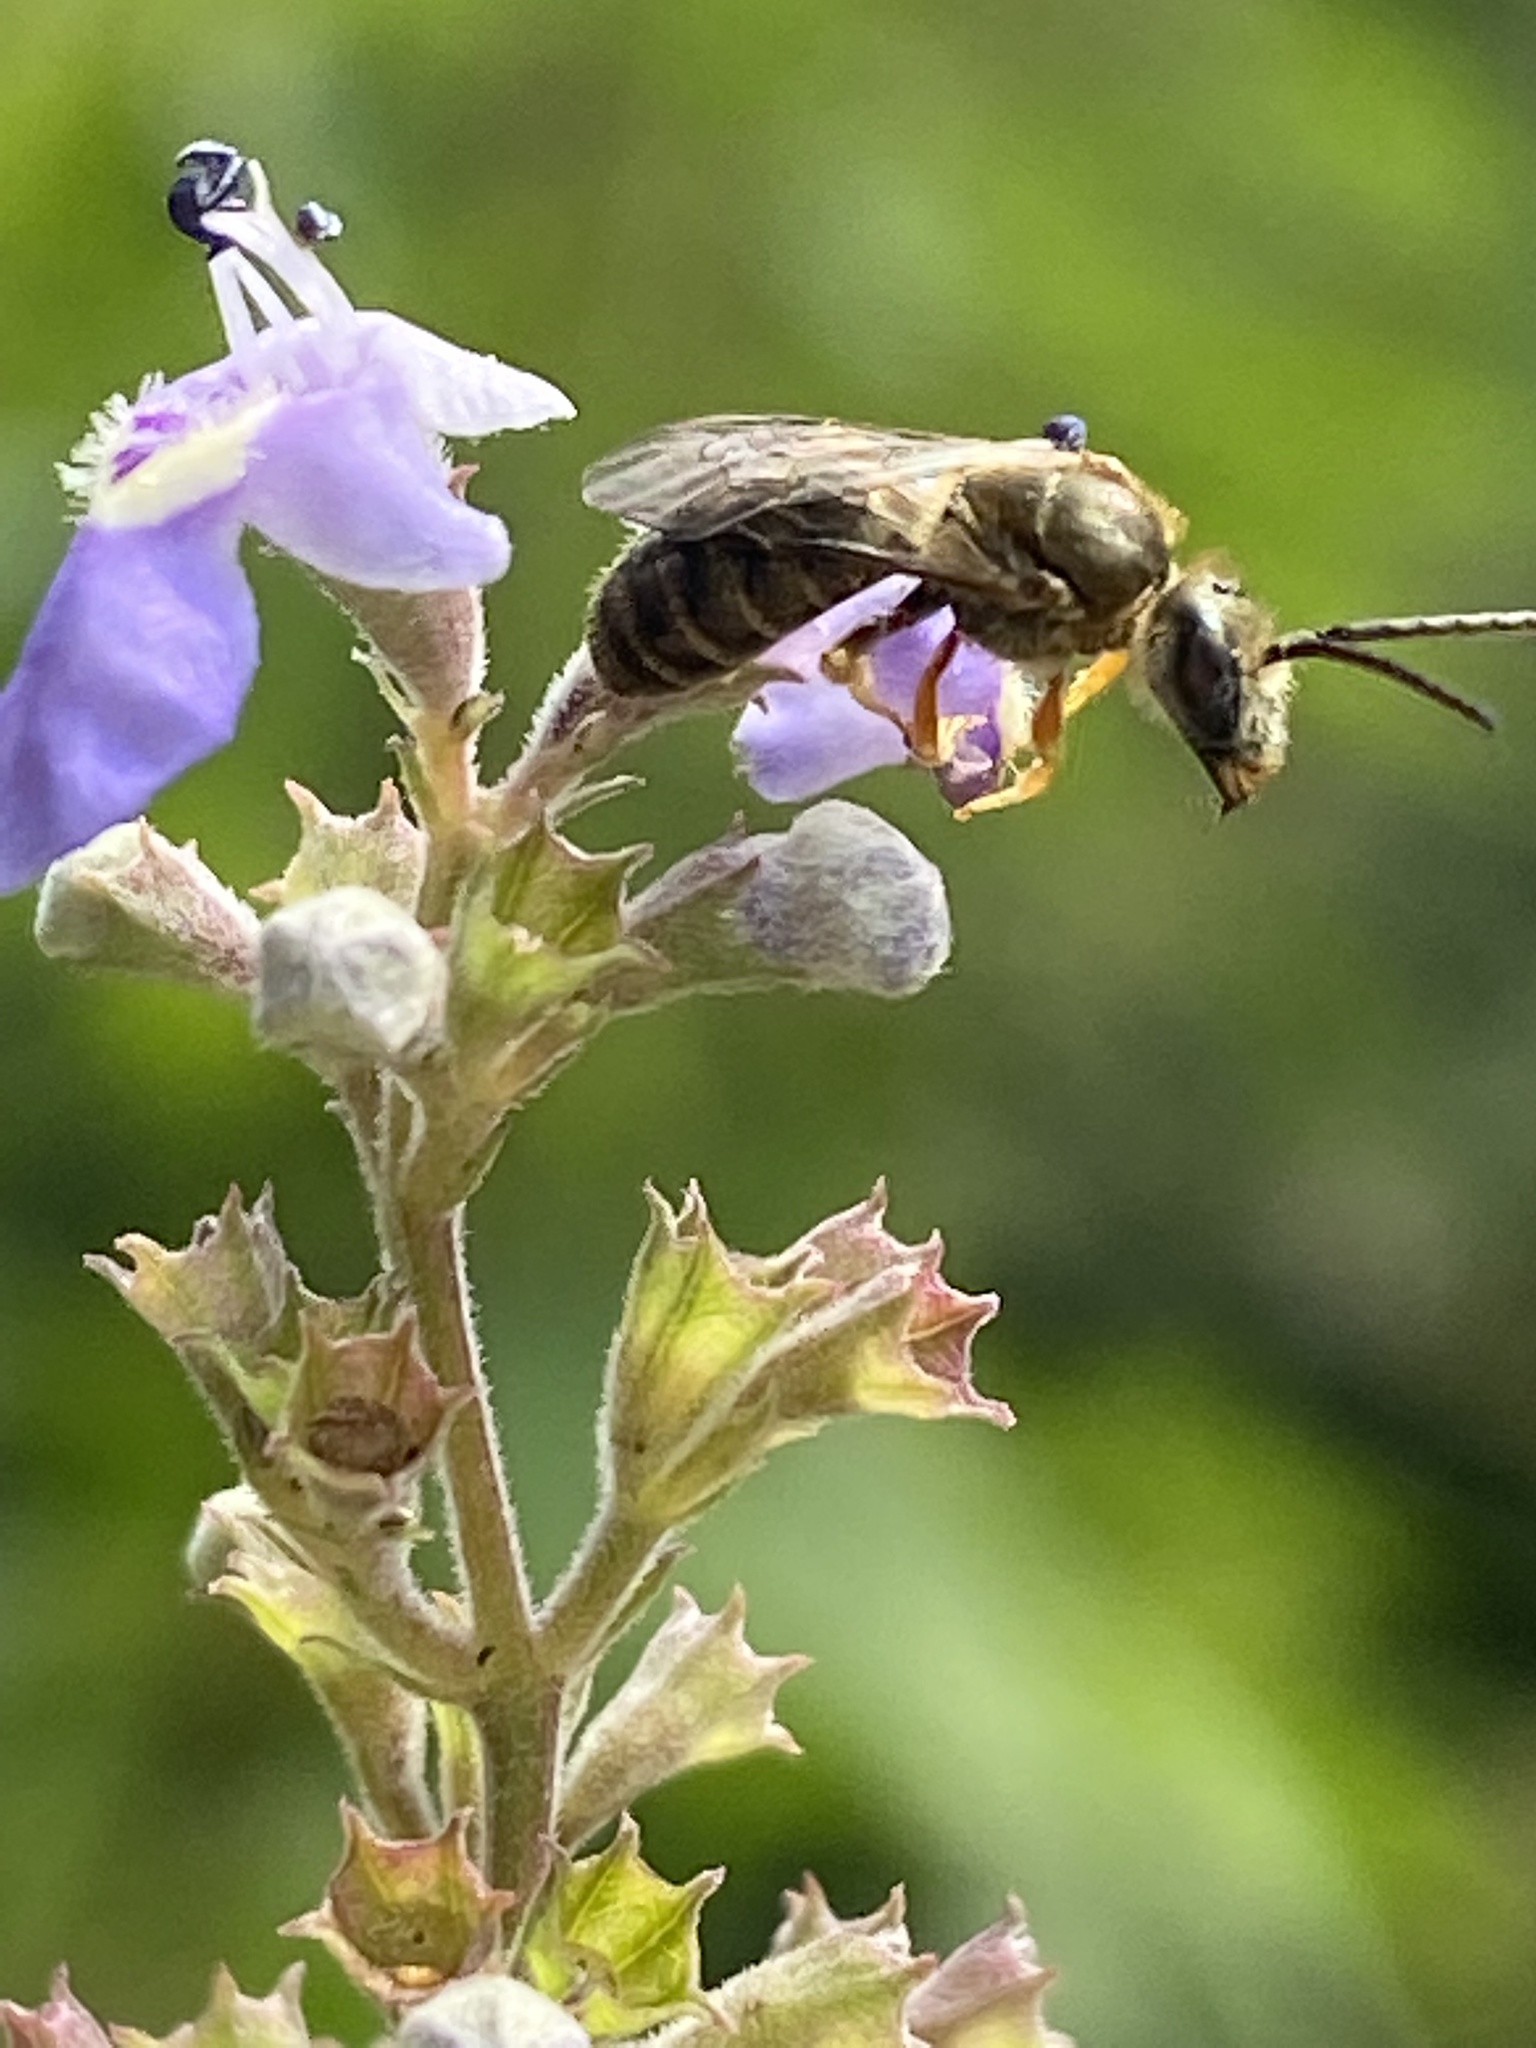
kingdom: Animalia
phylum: Arthropoda
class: Insecta
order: Hymenoptera
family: Halictidae
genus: Halictus
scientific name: Halictus confusus
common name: Southern bronze furrow bee
